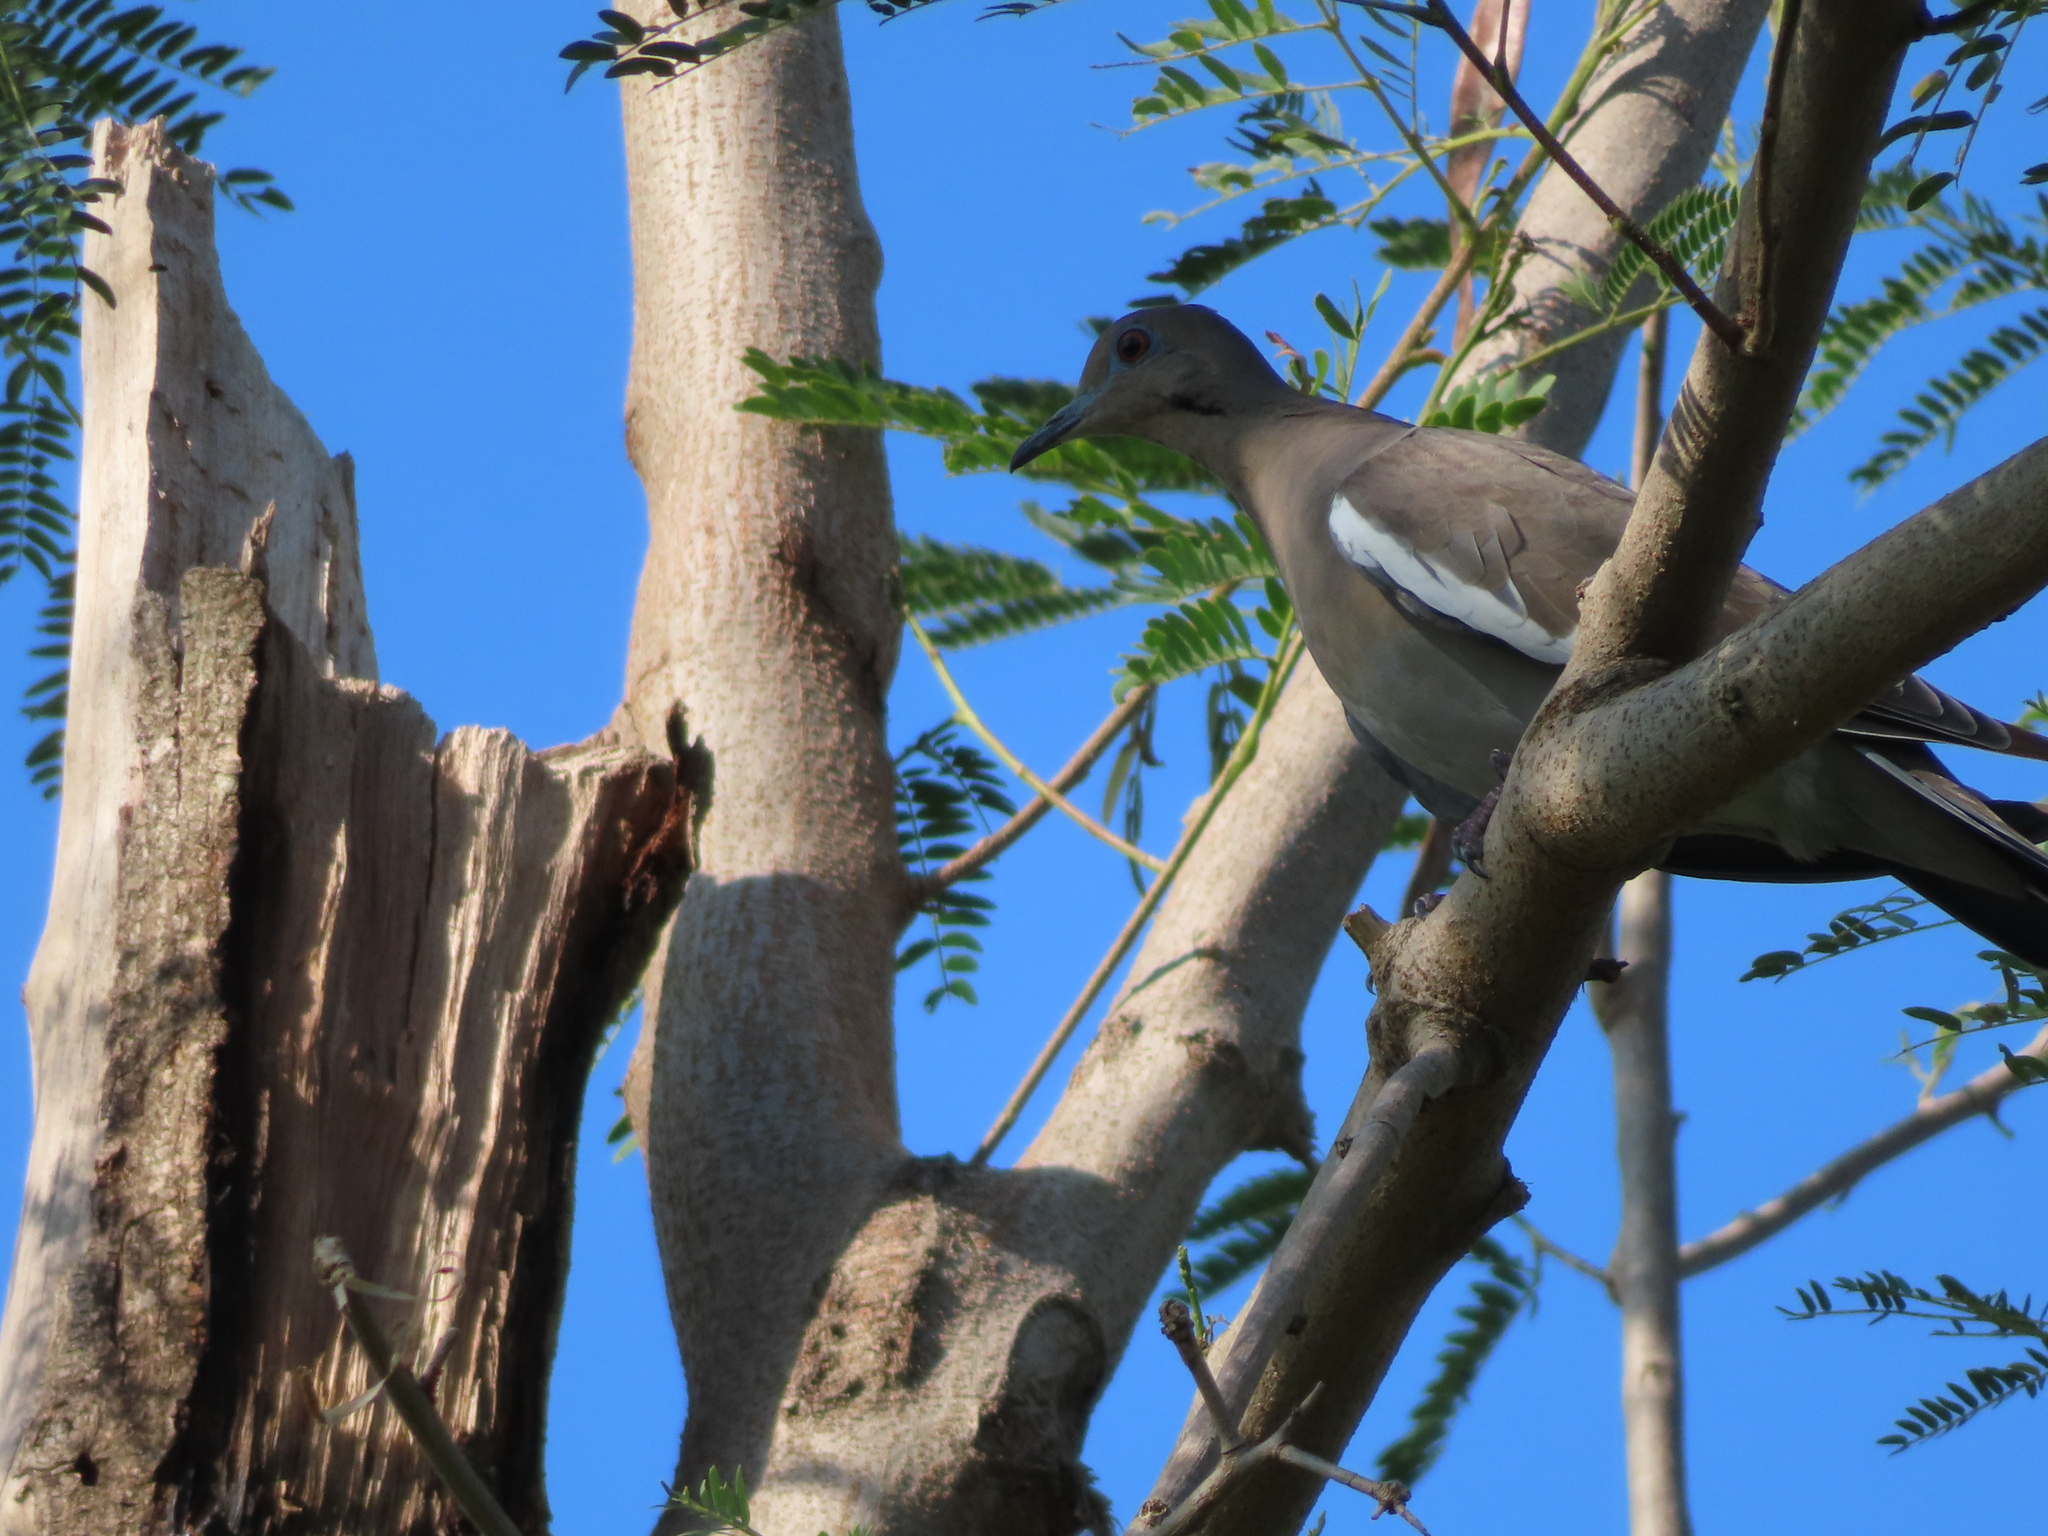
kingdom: Animalia
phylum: Chordata
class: Aves
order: Columbiformes
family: Columbidae
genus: Zenaida
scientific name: Zenaida asiatica
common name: White-winged dove
